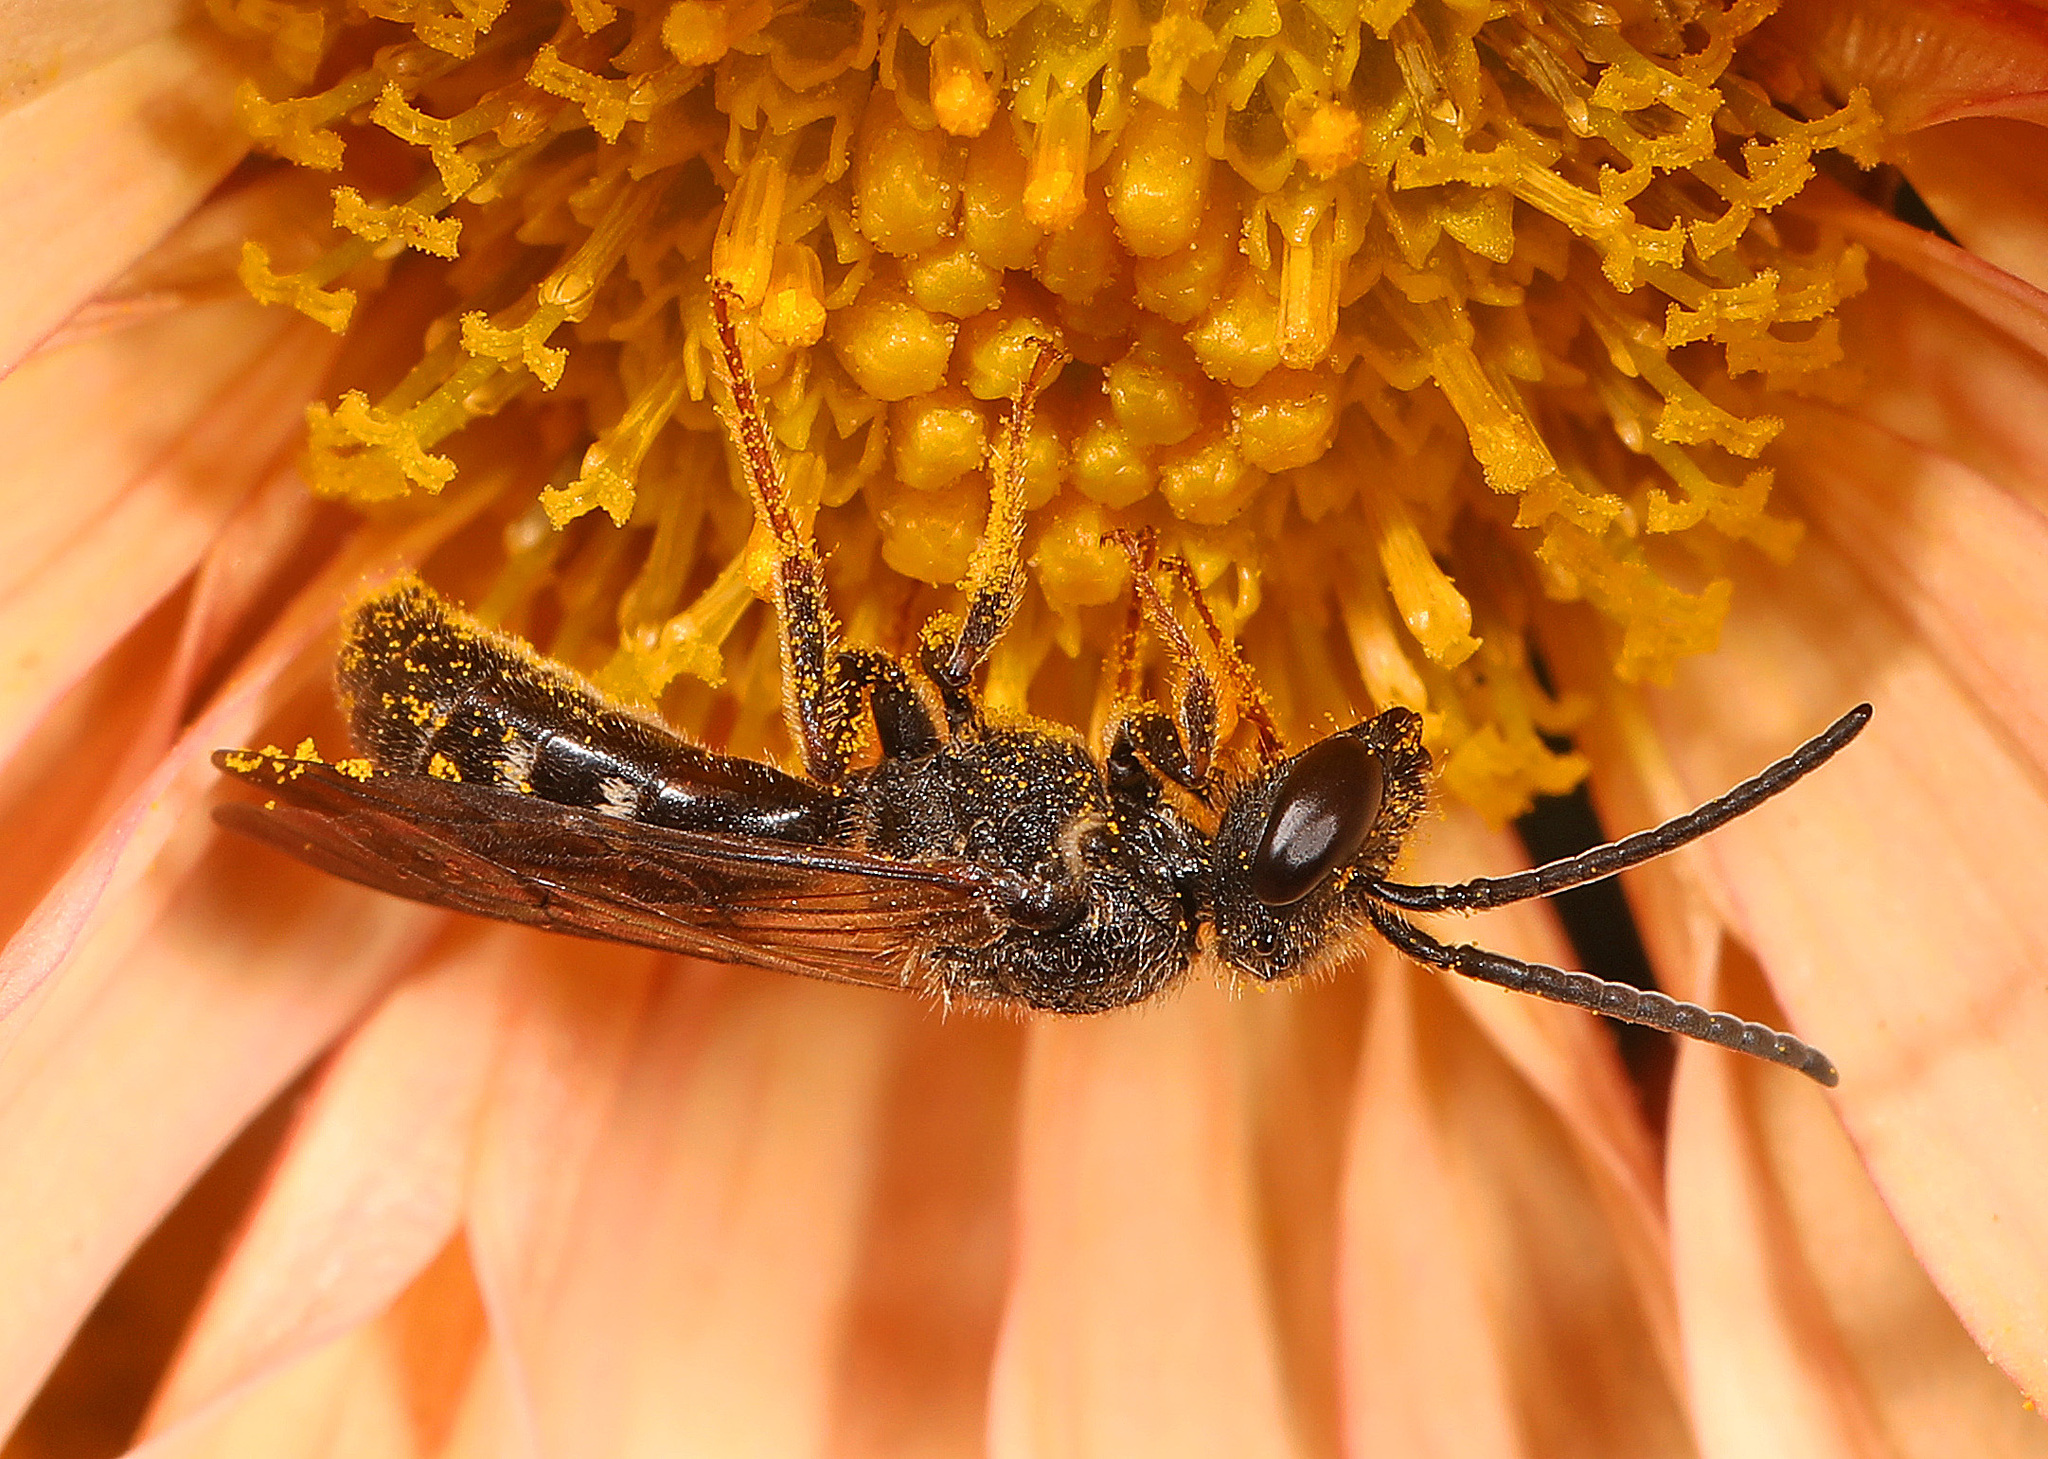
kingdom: Animalia
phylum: Arthropoda
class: Insecta
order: Hymenoptera
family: Halictidae
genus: Lasioglossum
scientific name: Lasioglossum fuscipenne
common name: Brown-winged sweat bee
